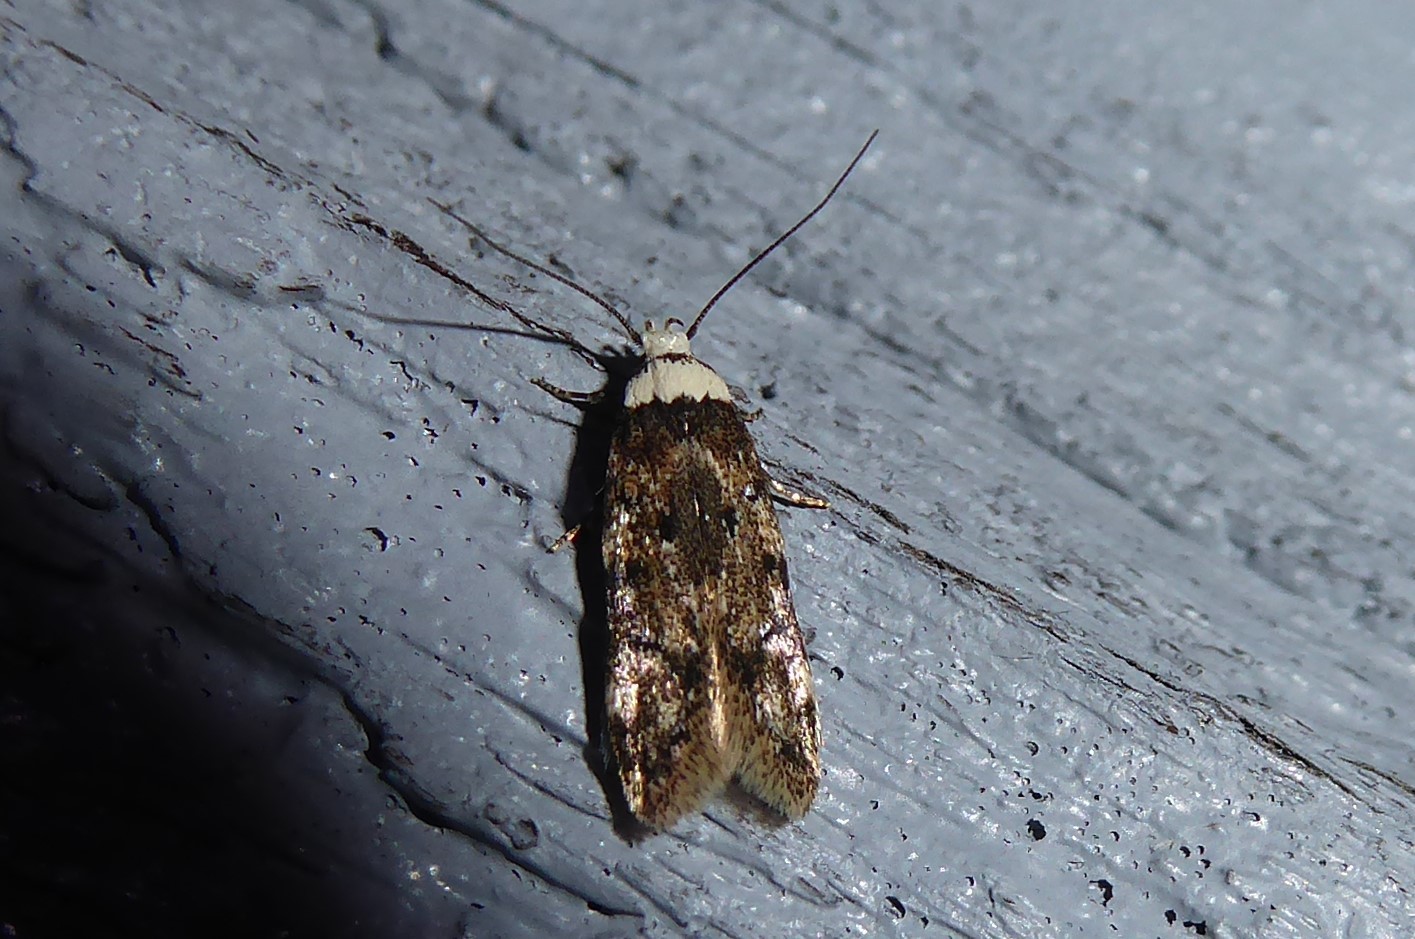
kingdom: Animalia
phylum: Arthropoda
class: Insecta
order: Lepidoptera
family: Oecophoridae
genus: Endrosis
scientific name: Endrosis sarcitrella
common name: White-shouldered house moth
